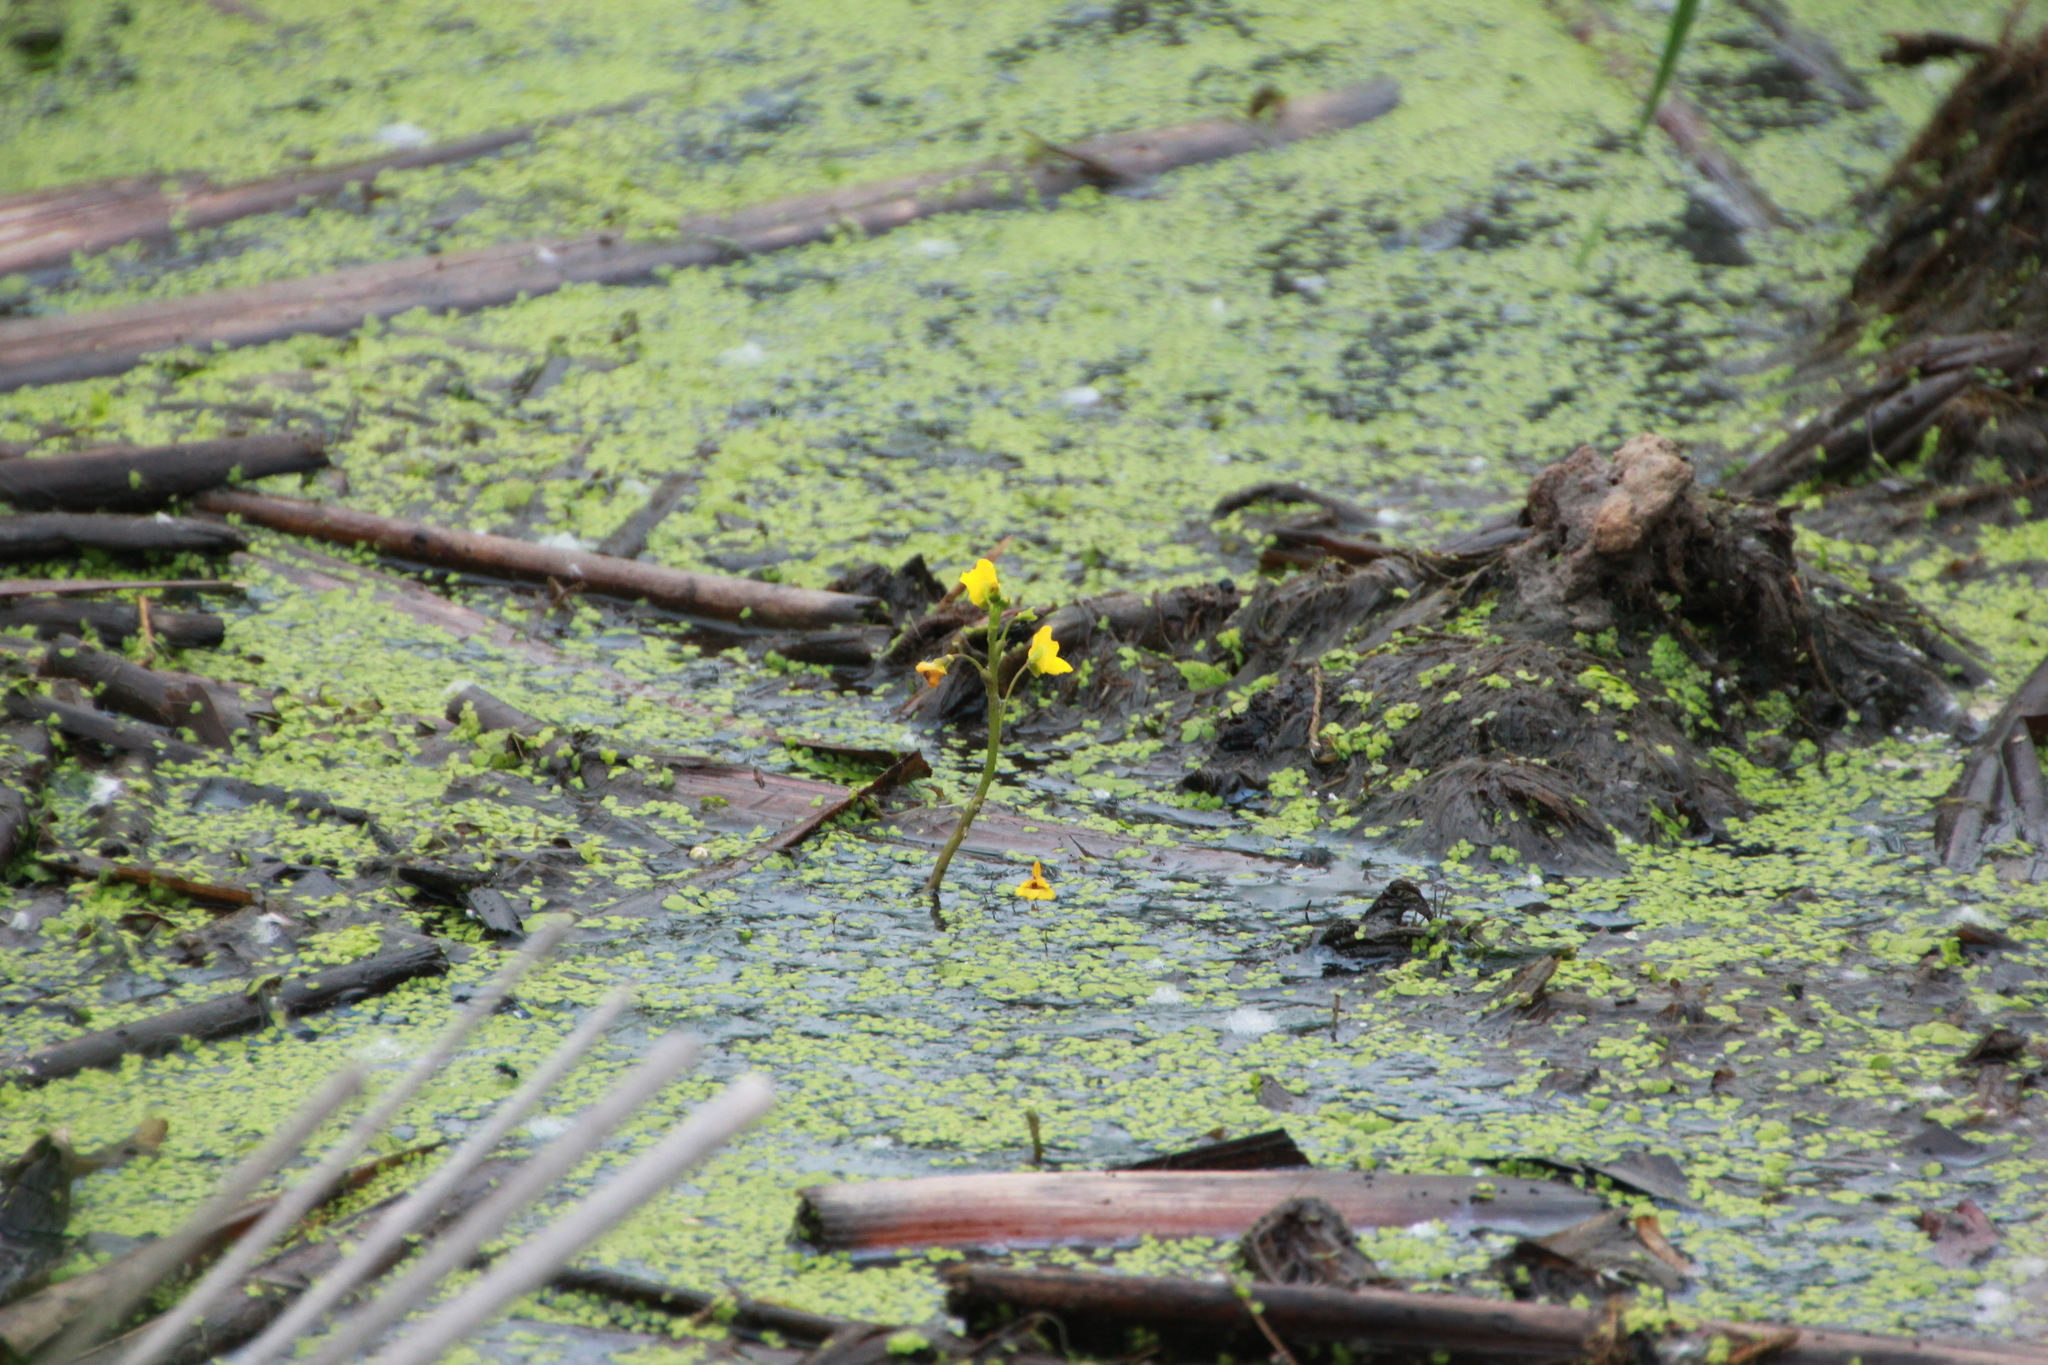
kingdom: Plantae
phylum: Tracheophyta
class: Magnoliopsida
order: Lamiales
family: Lentibulariaceae
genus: Utricularia
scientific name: Utricularia macrorhiza
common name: Common bladderwort
